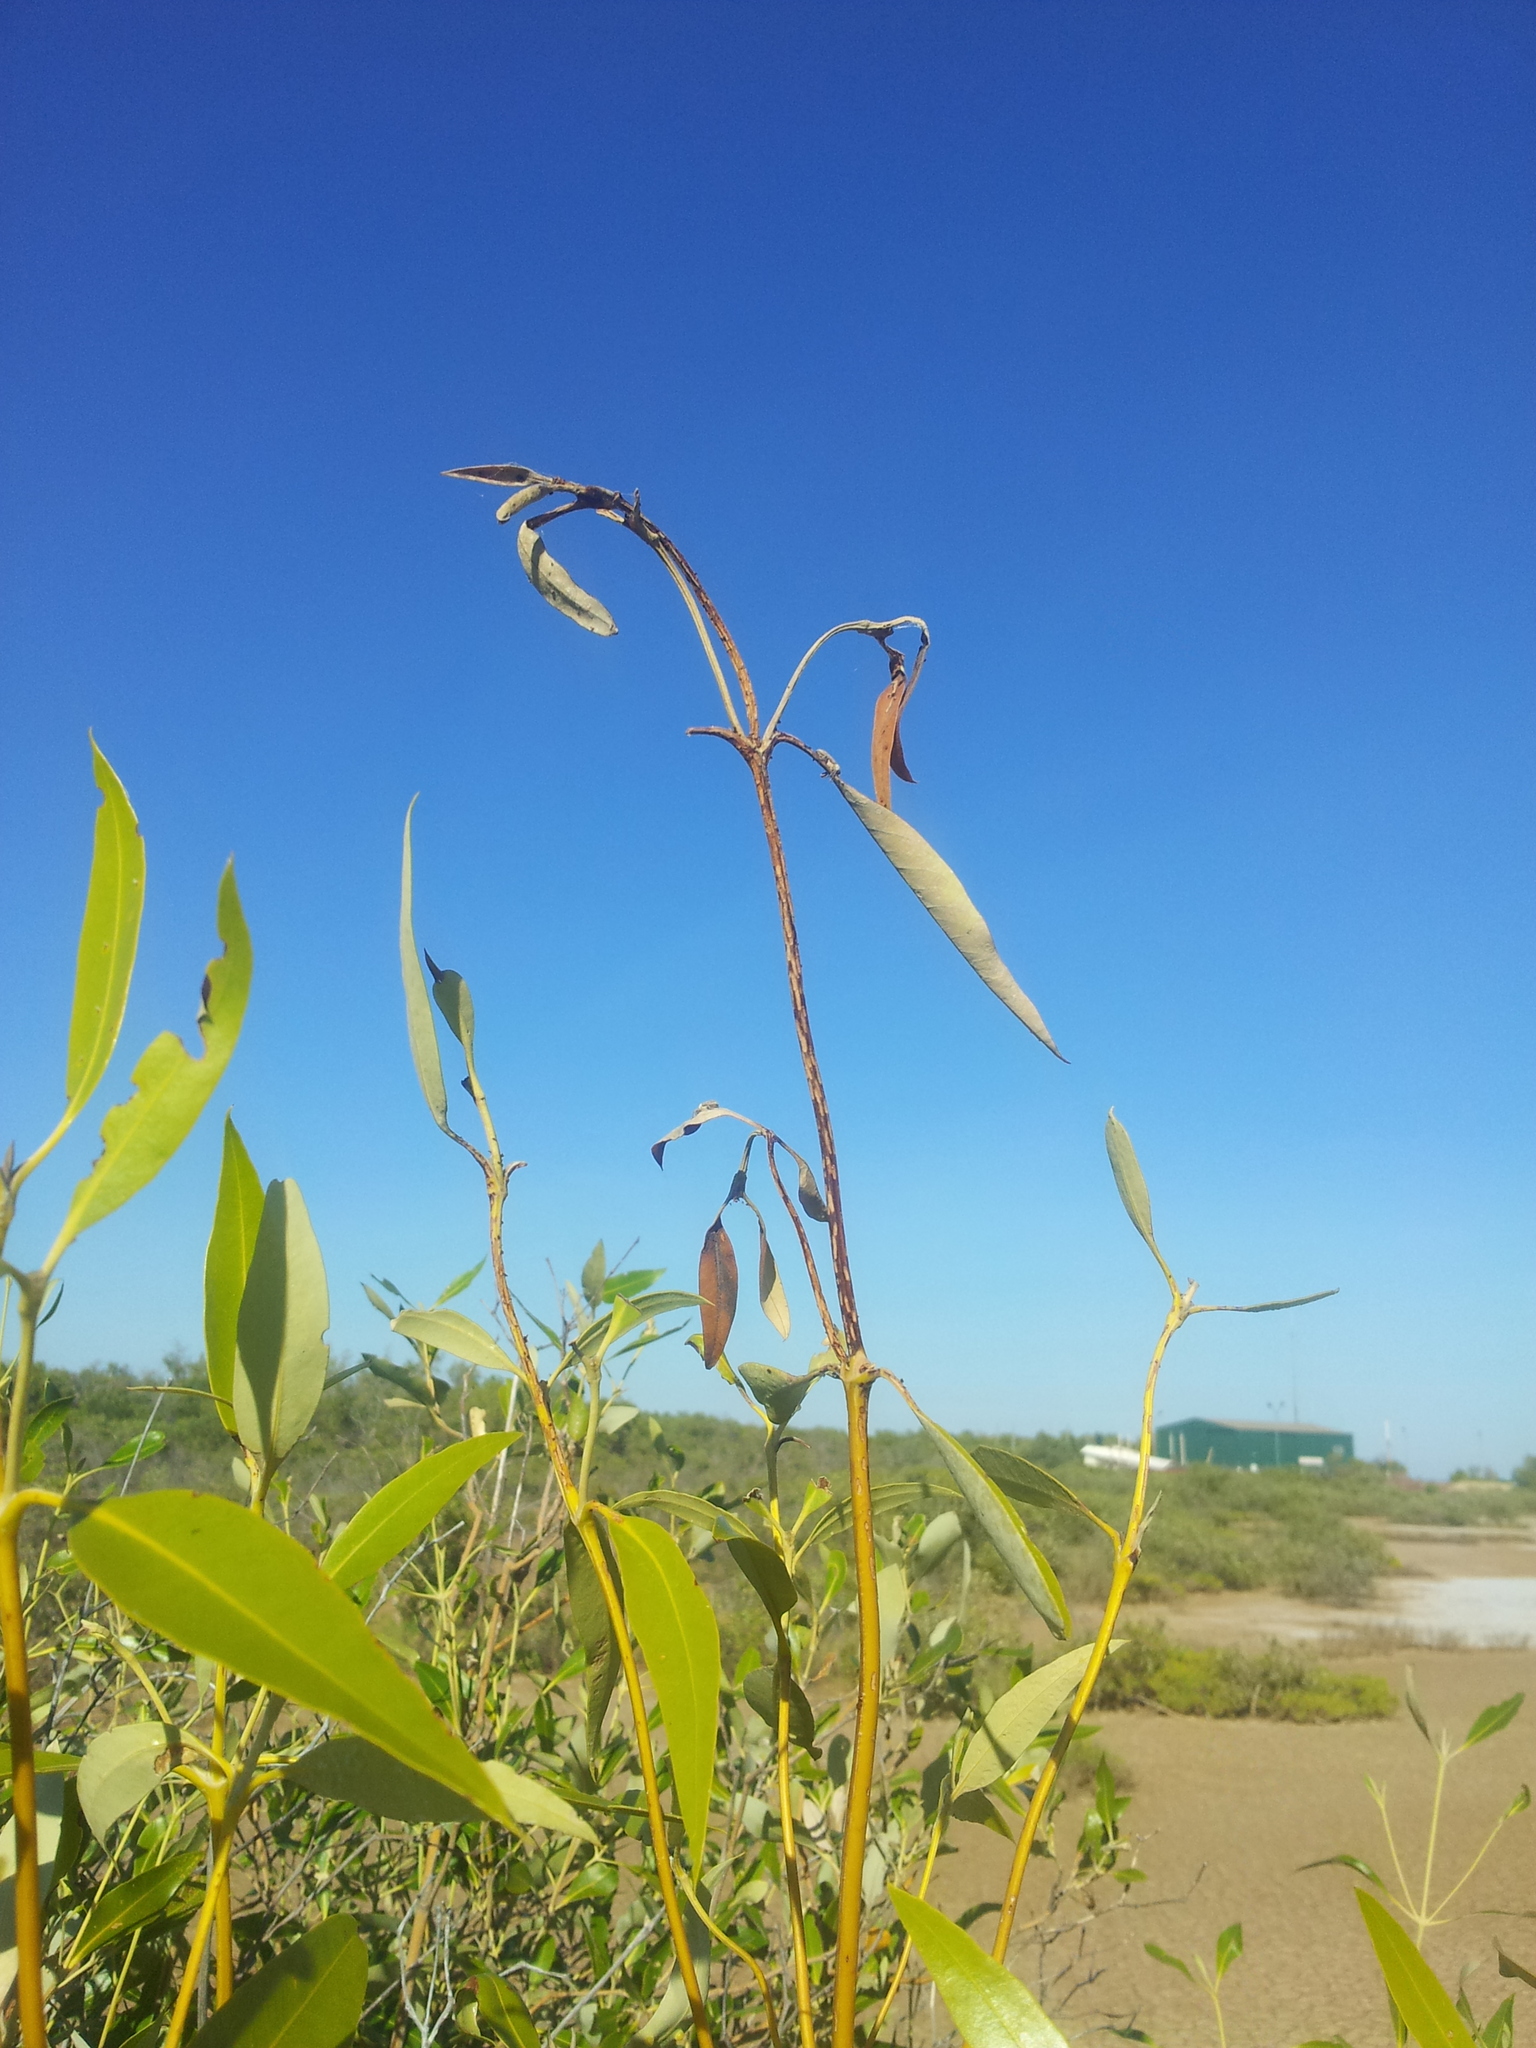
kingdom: Plantae
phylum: Tracheophyta
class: Magnoliopsida
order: Lamiales
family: Acanthaceae
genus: Avicennia
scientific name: Avicennia marina
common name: Gray mangrove
